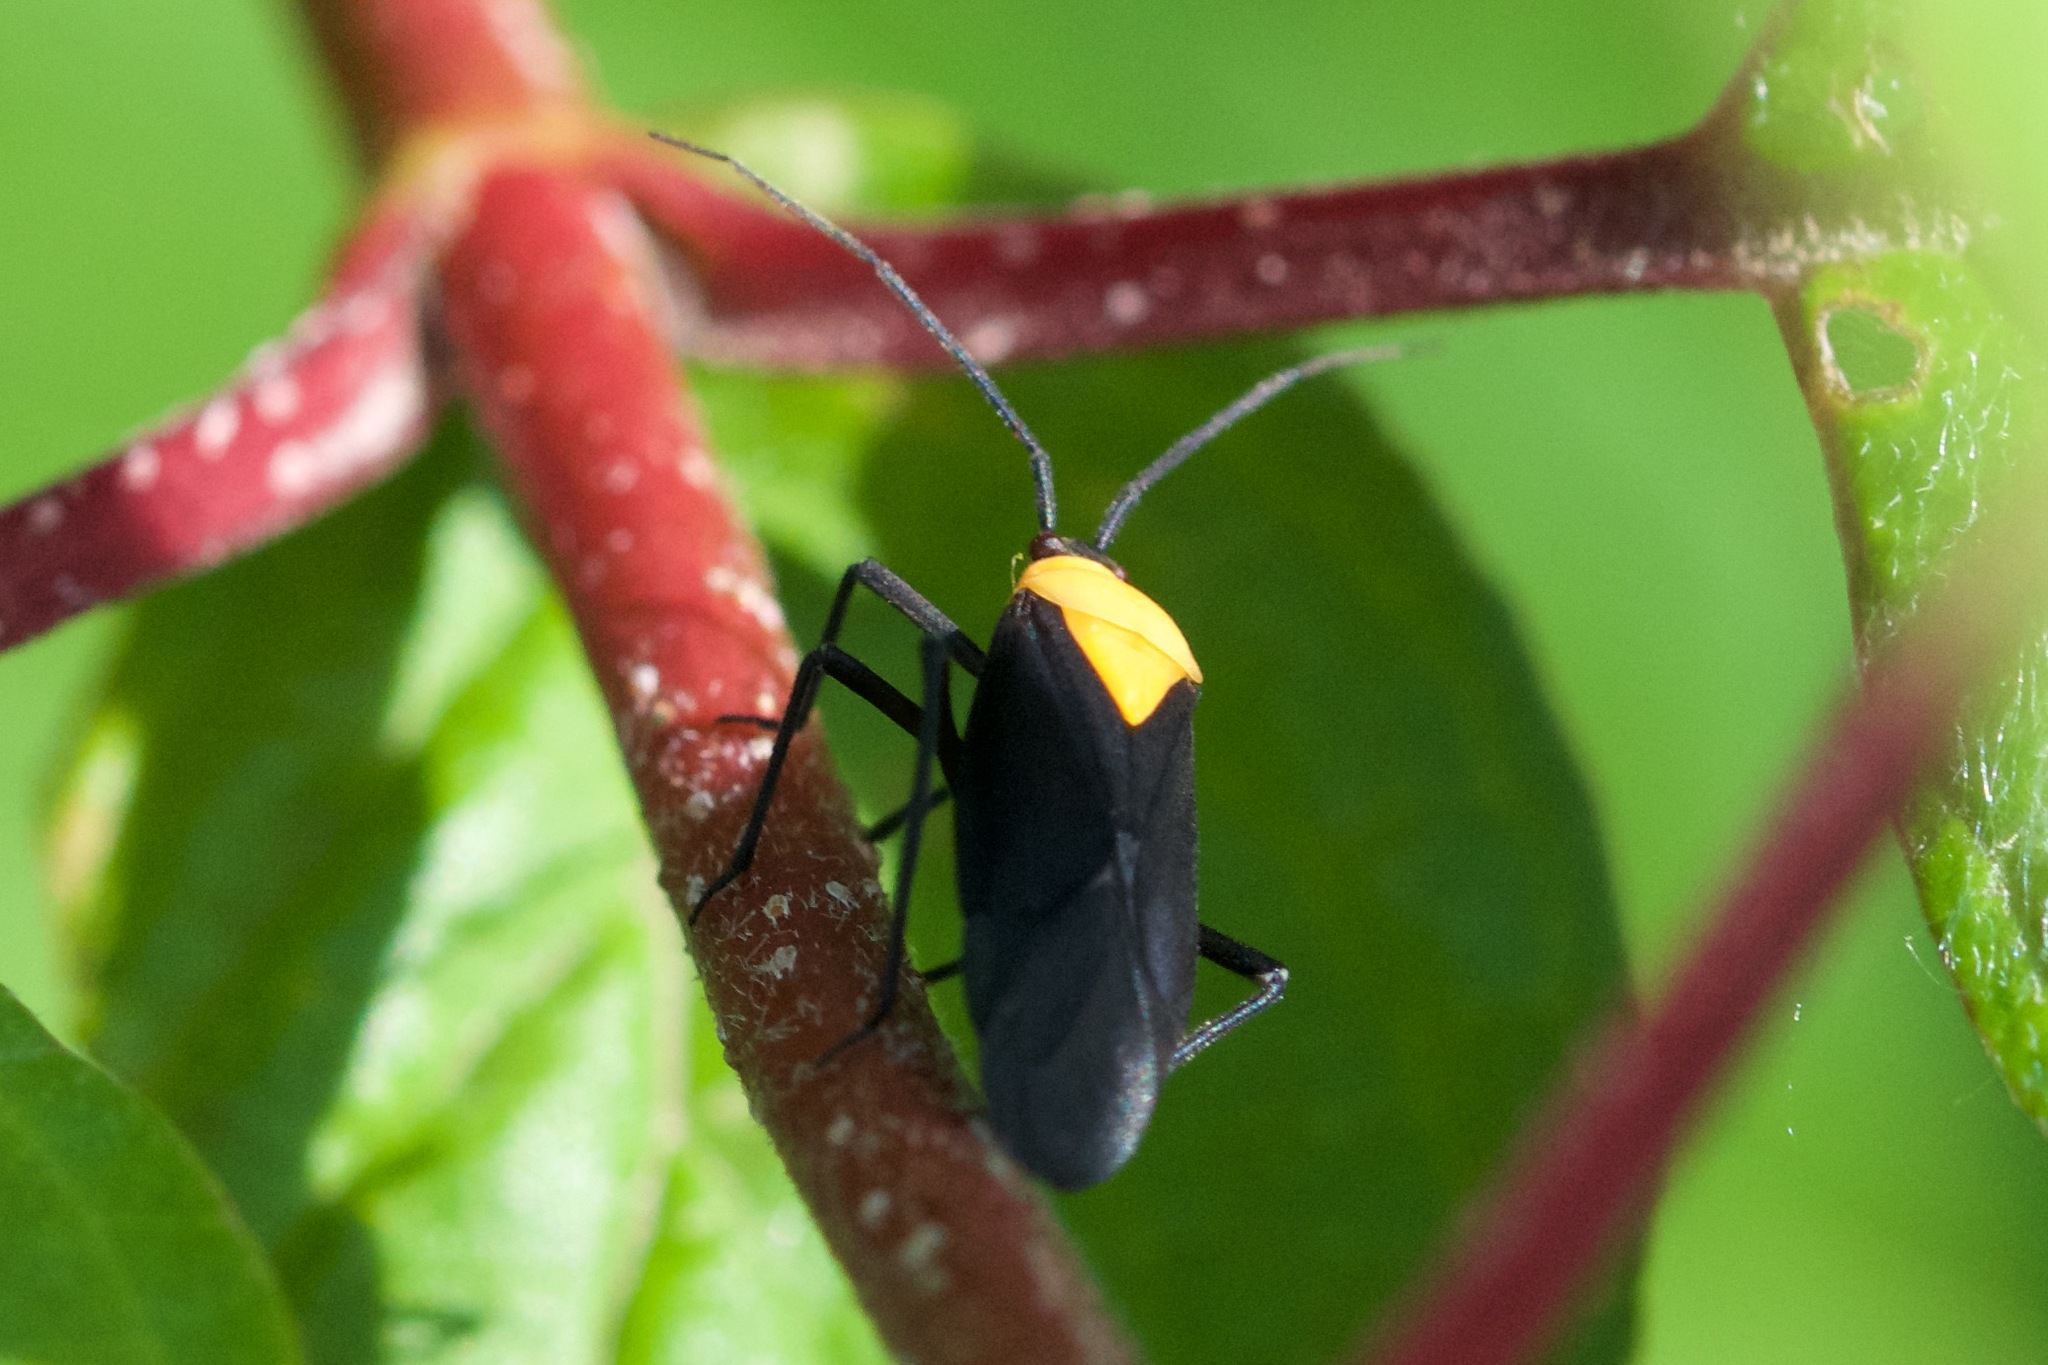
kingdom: Animalia
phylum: Arthropoda
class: Insecta
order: Hemiptera
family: Miridae
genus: Prepops
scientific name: Prepops insitivus
